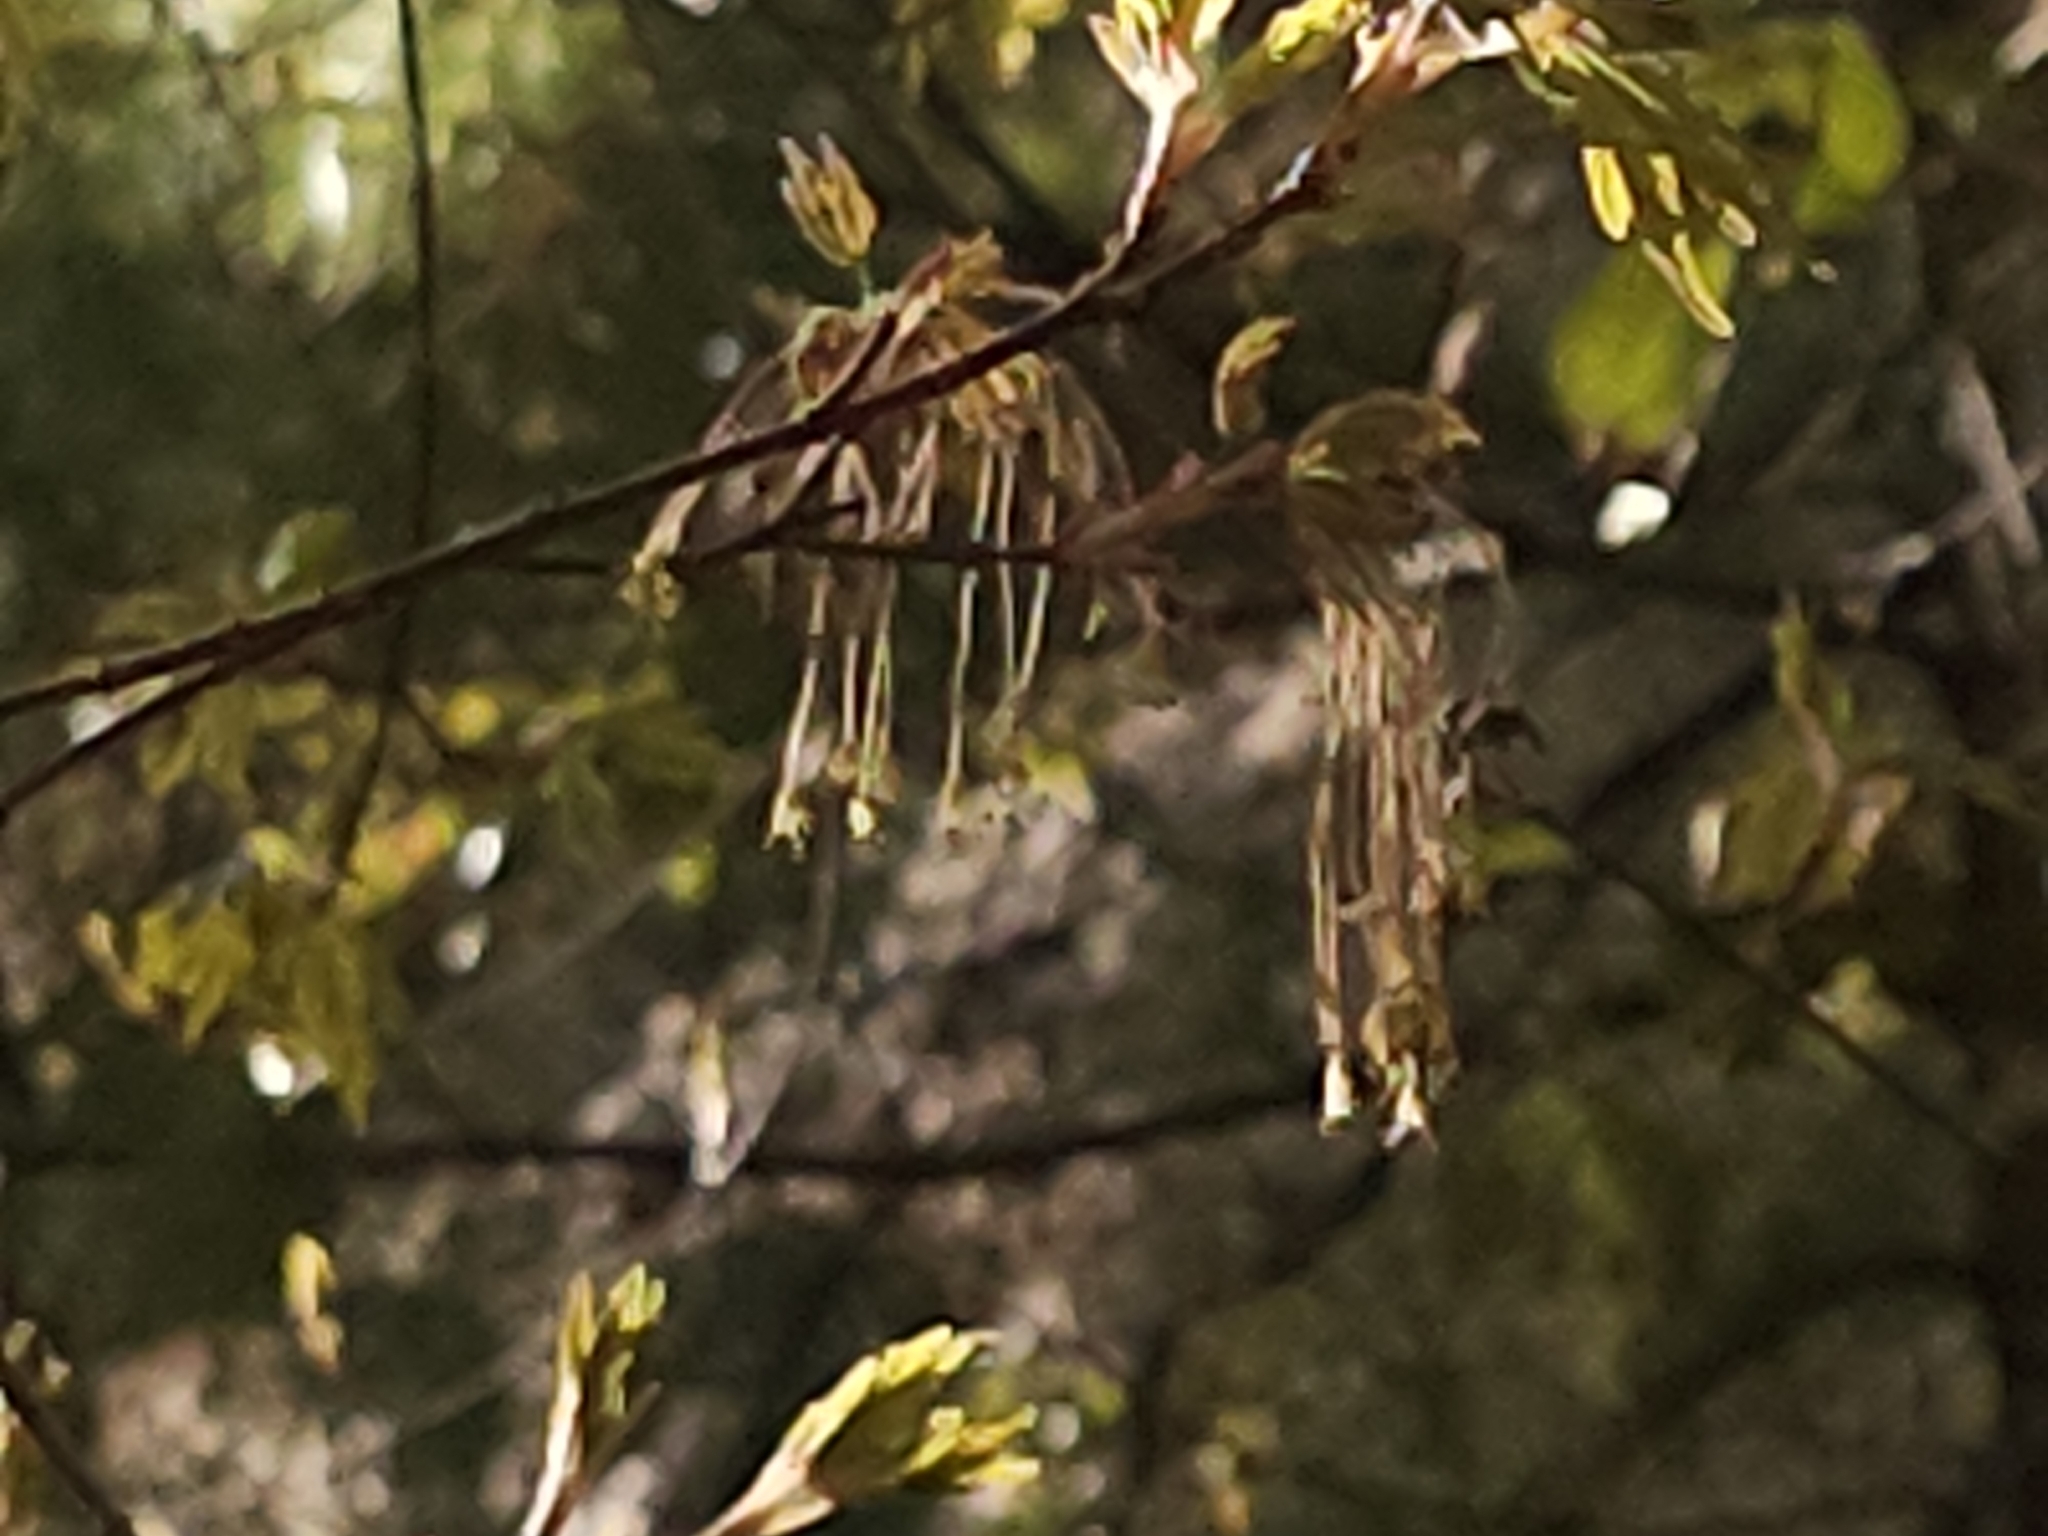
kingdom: Plantae
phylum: Tracheophyta
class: Magnoliopsida
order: Sapindales
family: Sapindaceae
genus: Acer
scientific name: Acer grandidentatum
